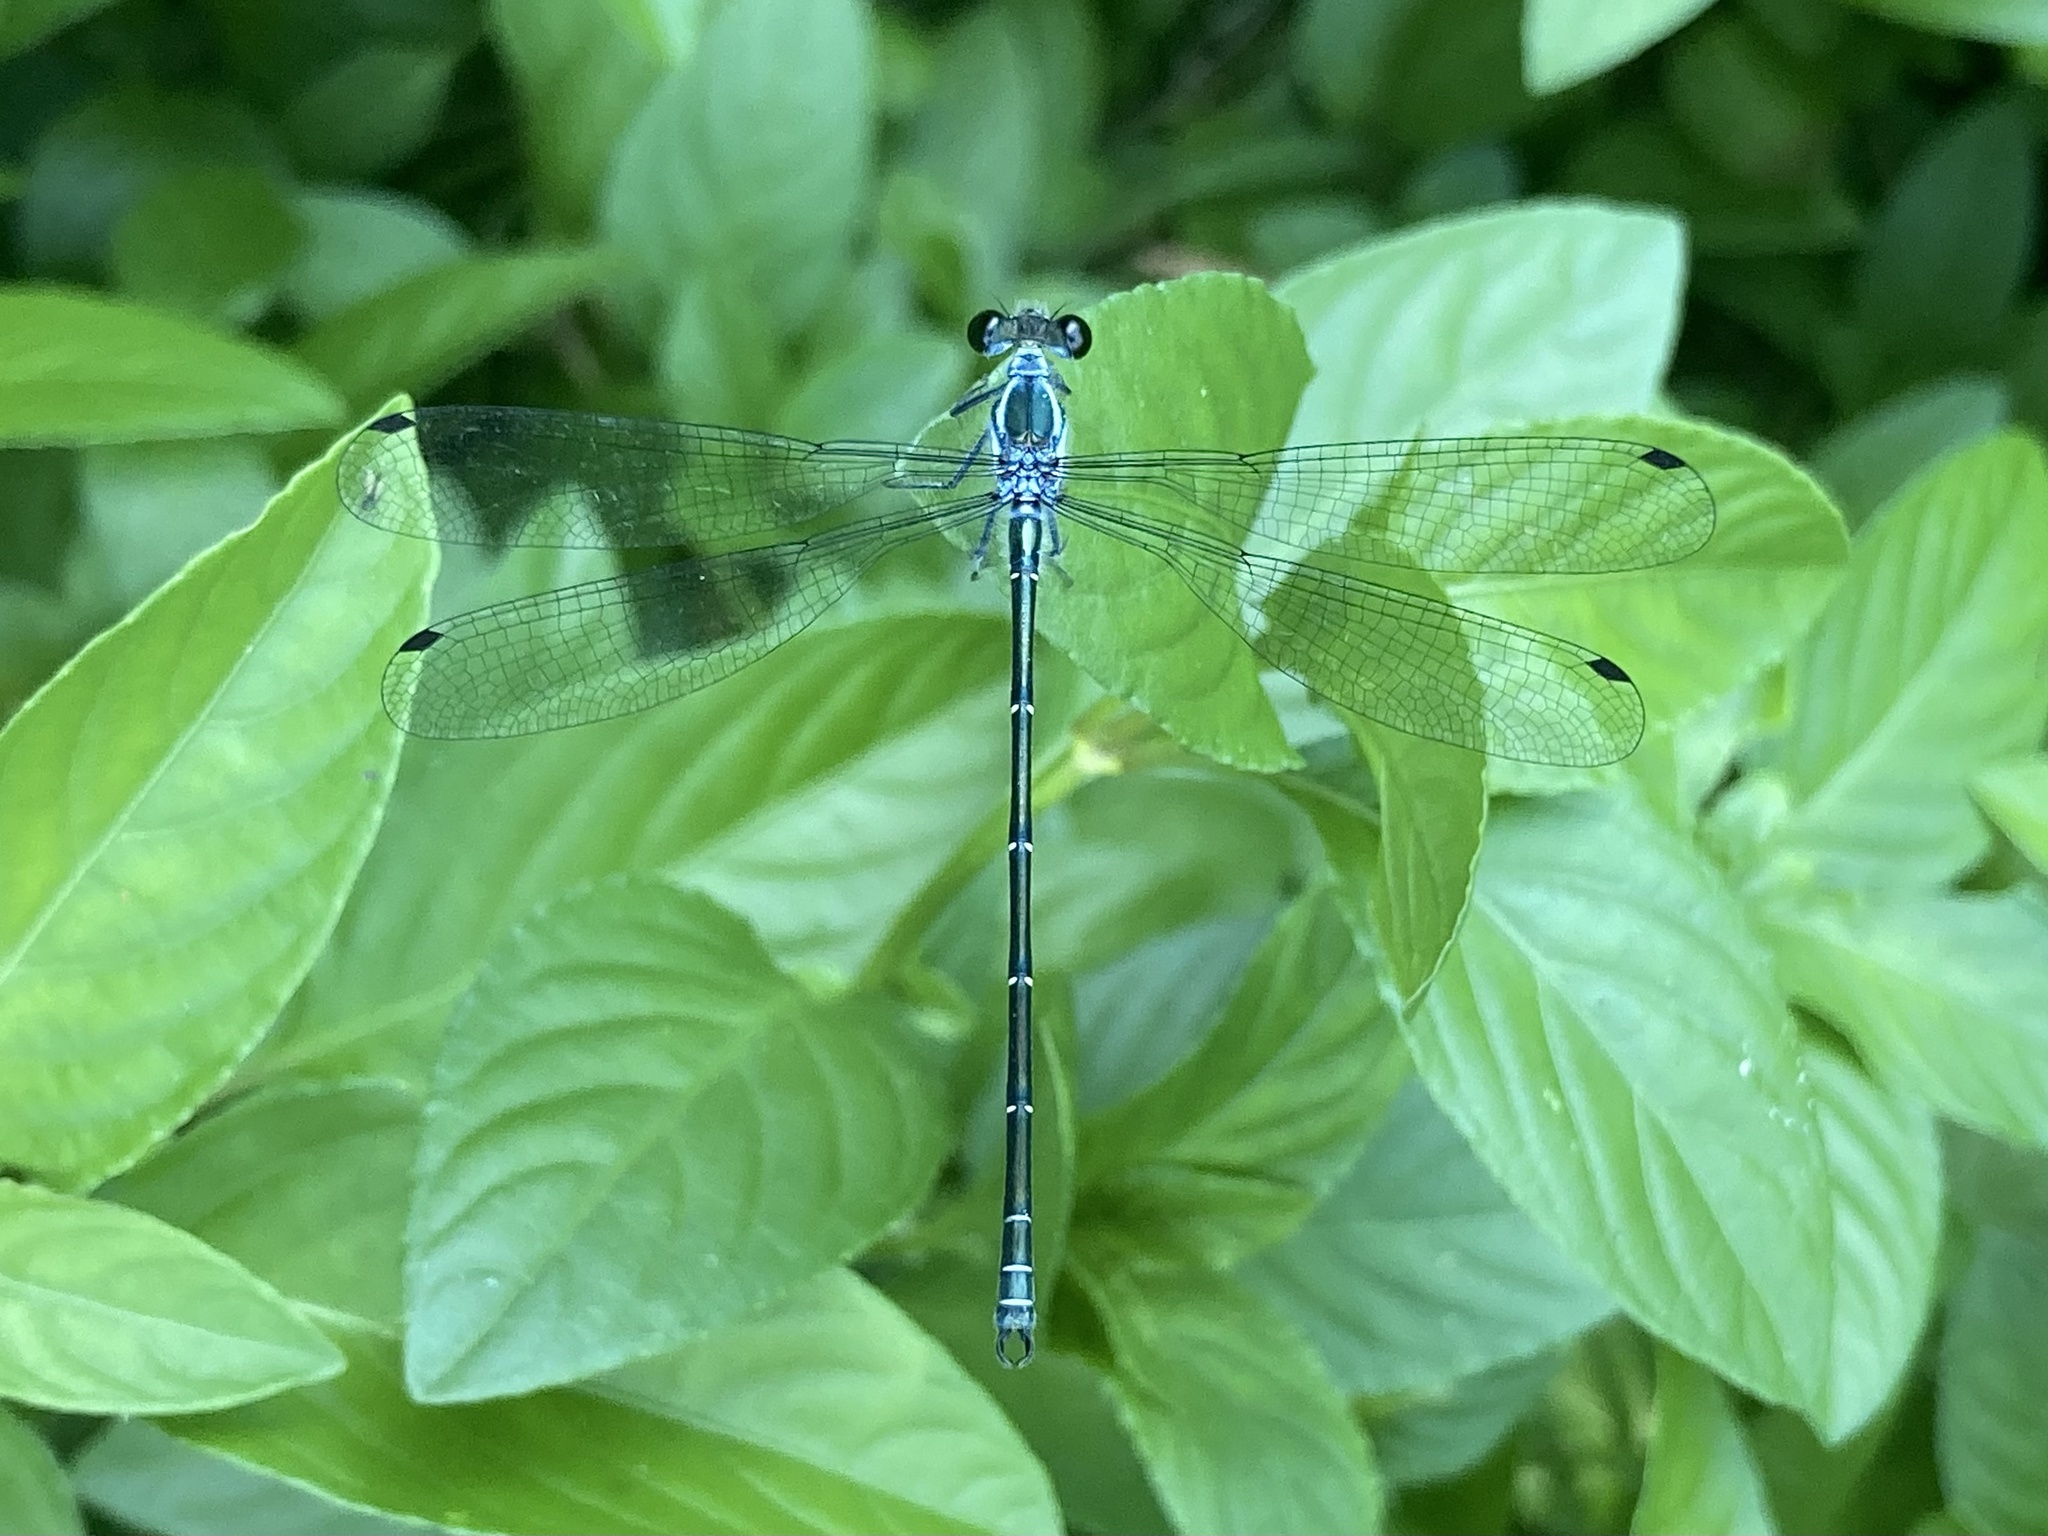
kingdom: Animalia
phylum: Arthropoda
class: Insecta
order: Odonata
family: Argiolestidae
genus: Austroargiolestes
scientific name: Austroargiolestes icteromelas
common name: Common flatwing
